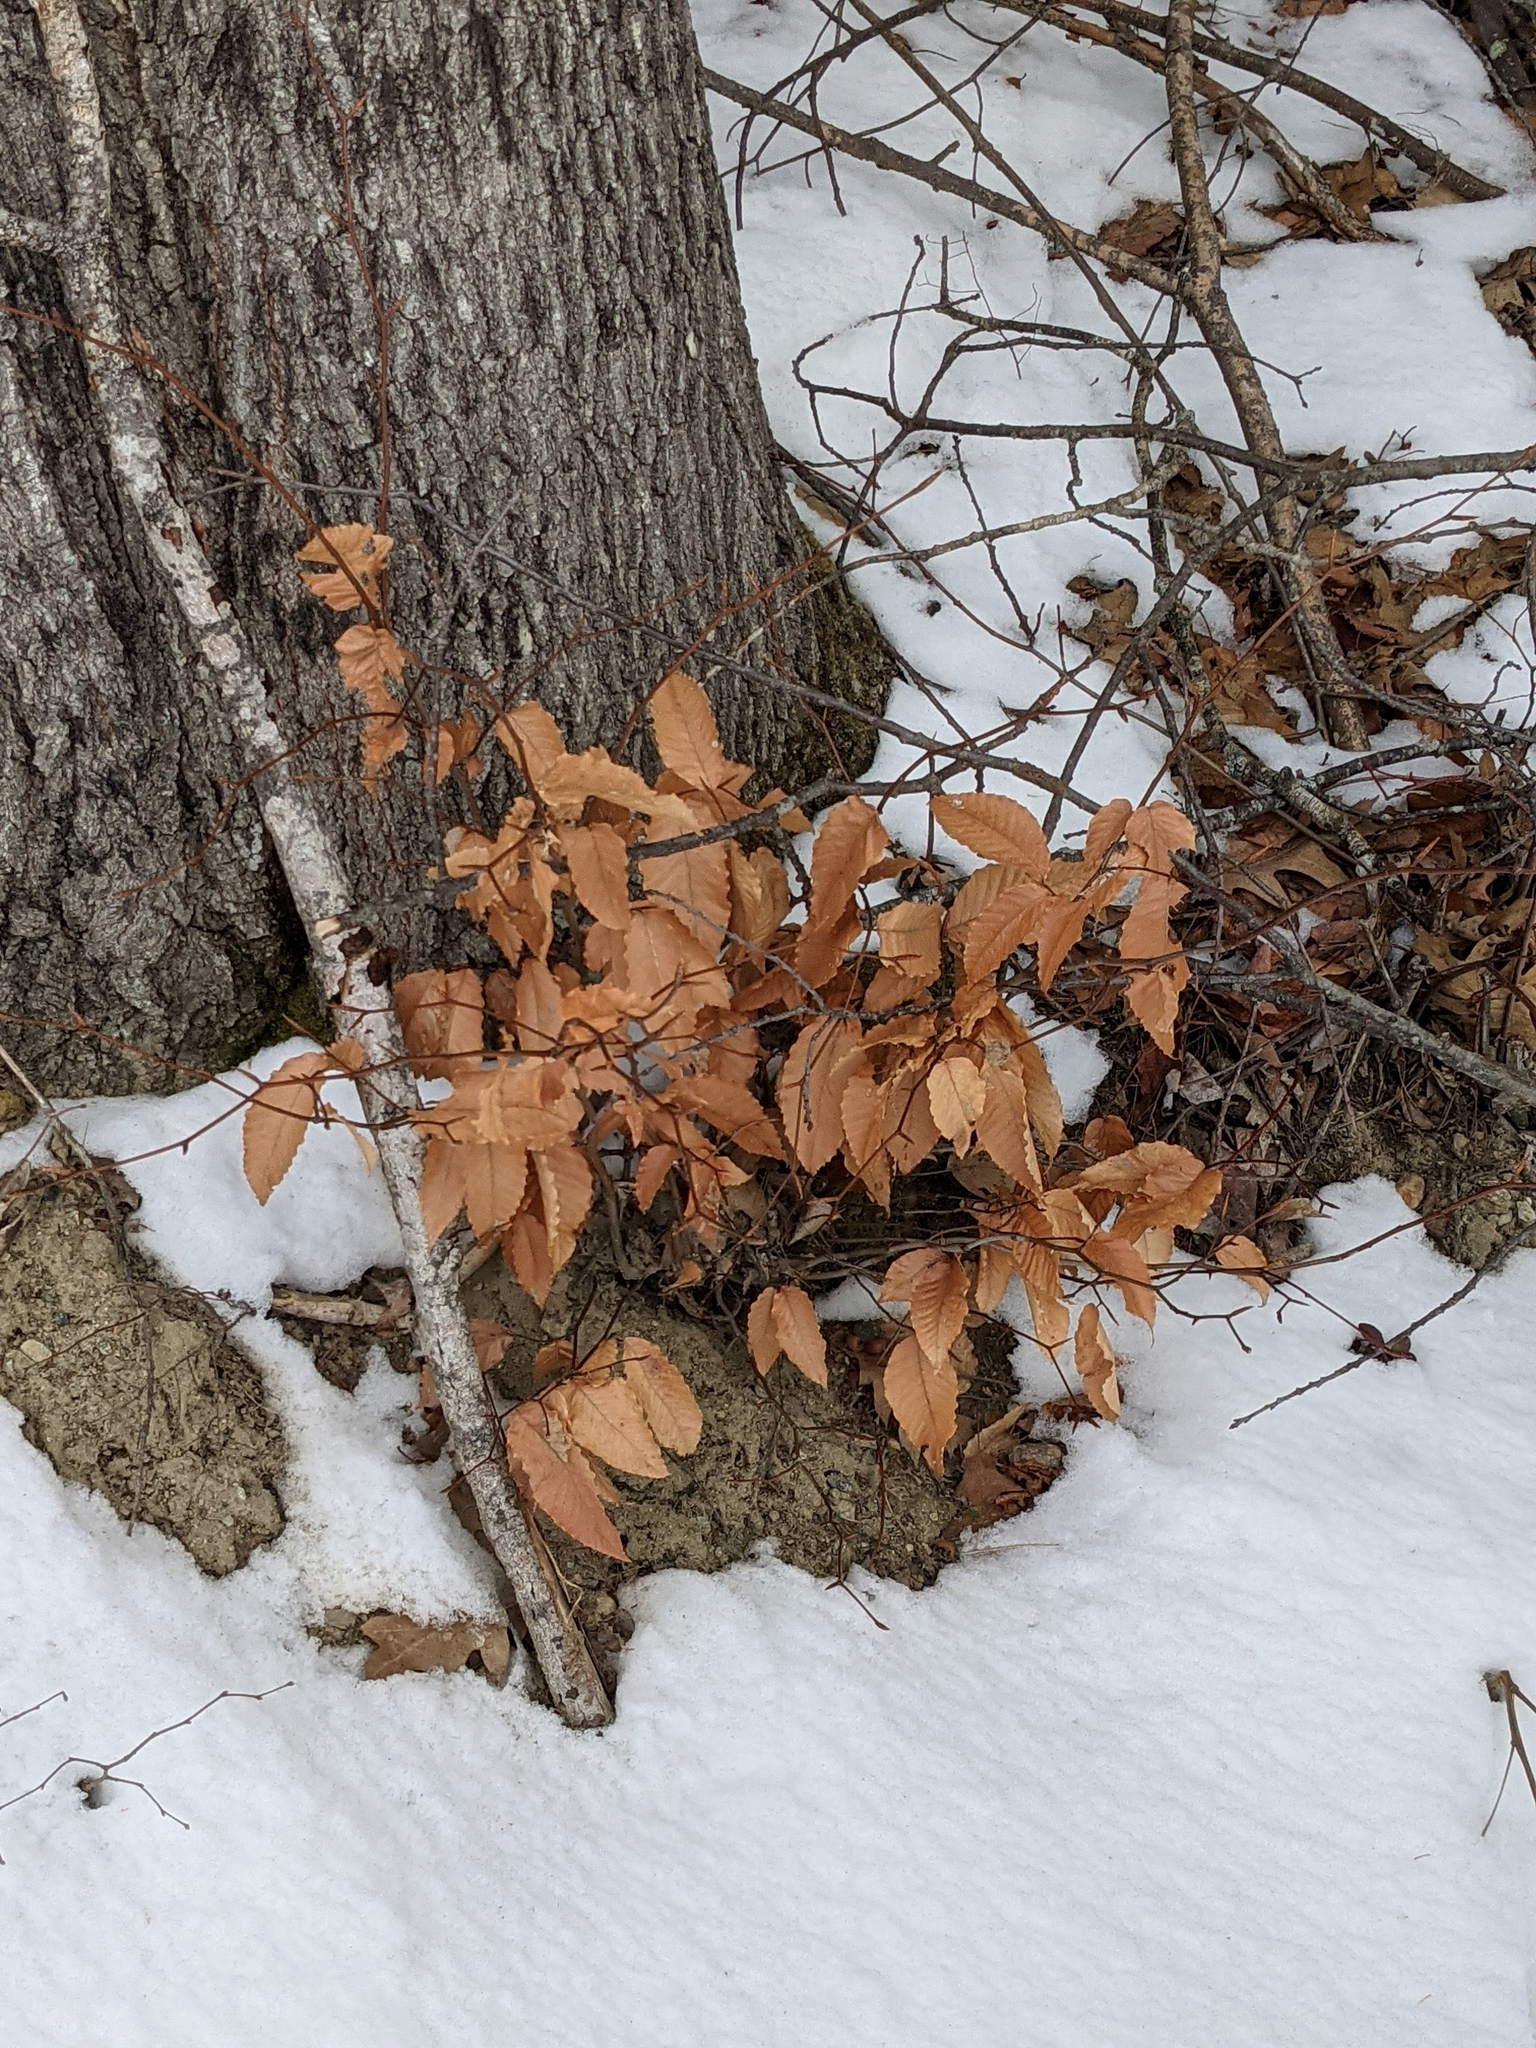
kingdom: Plantae
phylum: Tracheophyta
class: Magnoliopsida
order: Fagales
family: Fagaceae
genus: Fagus
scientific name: Fagus grandifolia
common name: American beech
